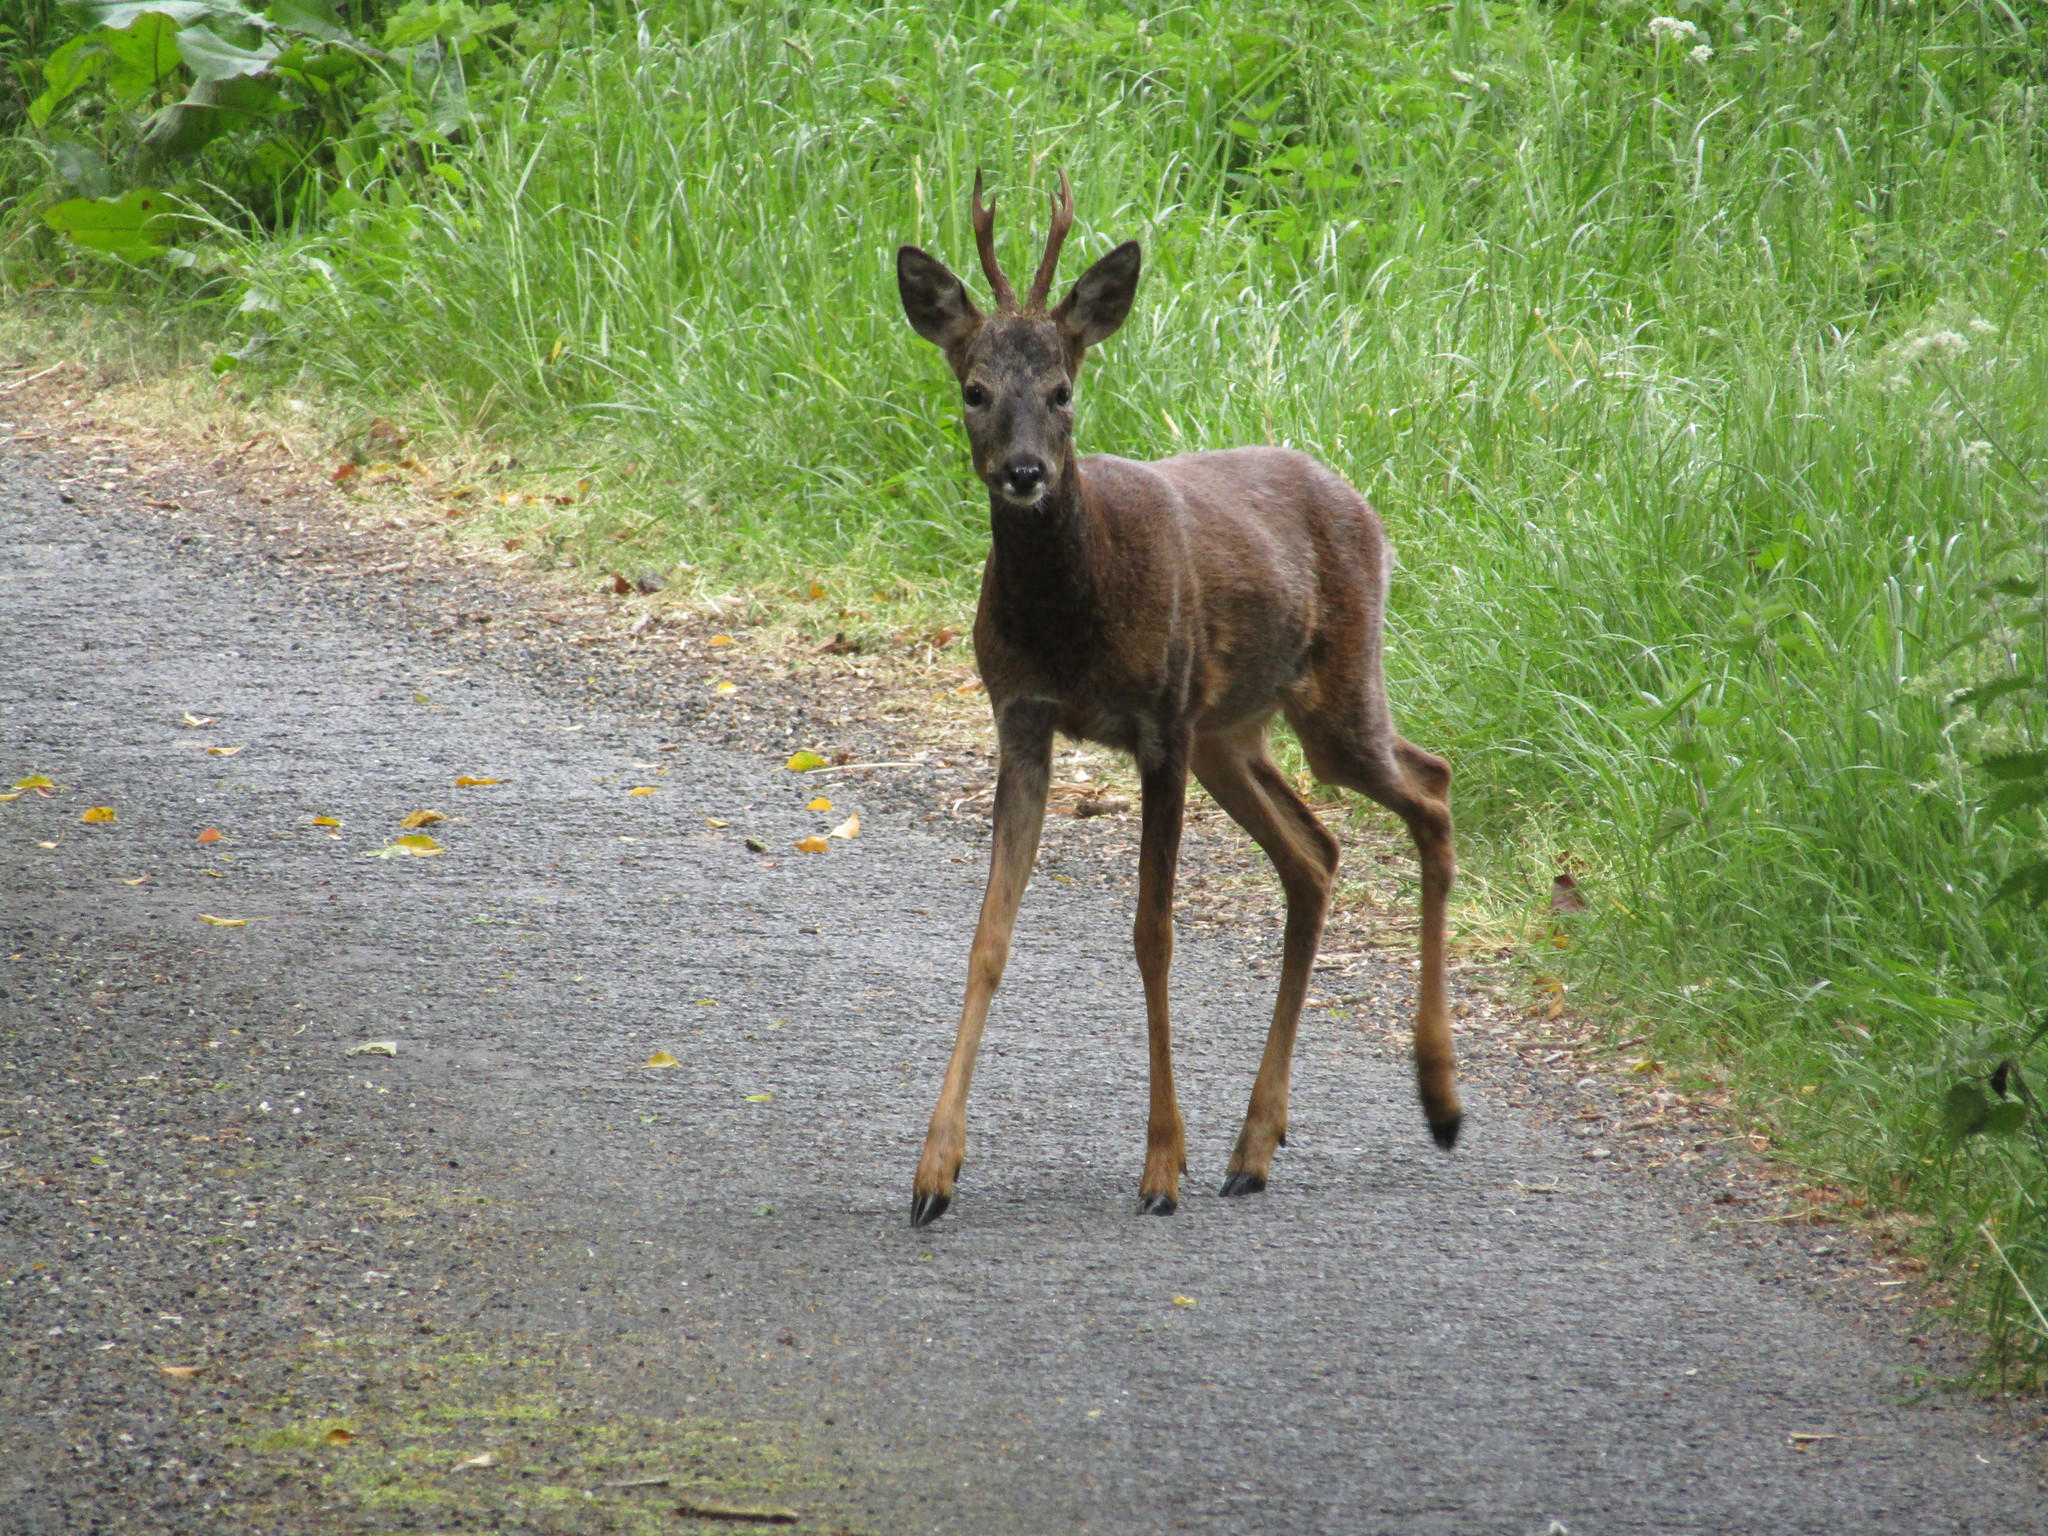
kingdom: Animalia
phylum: Chordata
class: Mammalia
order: Artiodactyla
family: Cervidae
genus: Capreolus
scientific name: Capreolus capreolus
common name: Western roe deer
